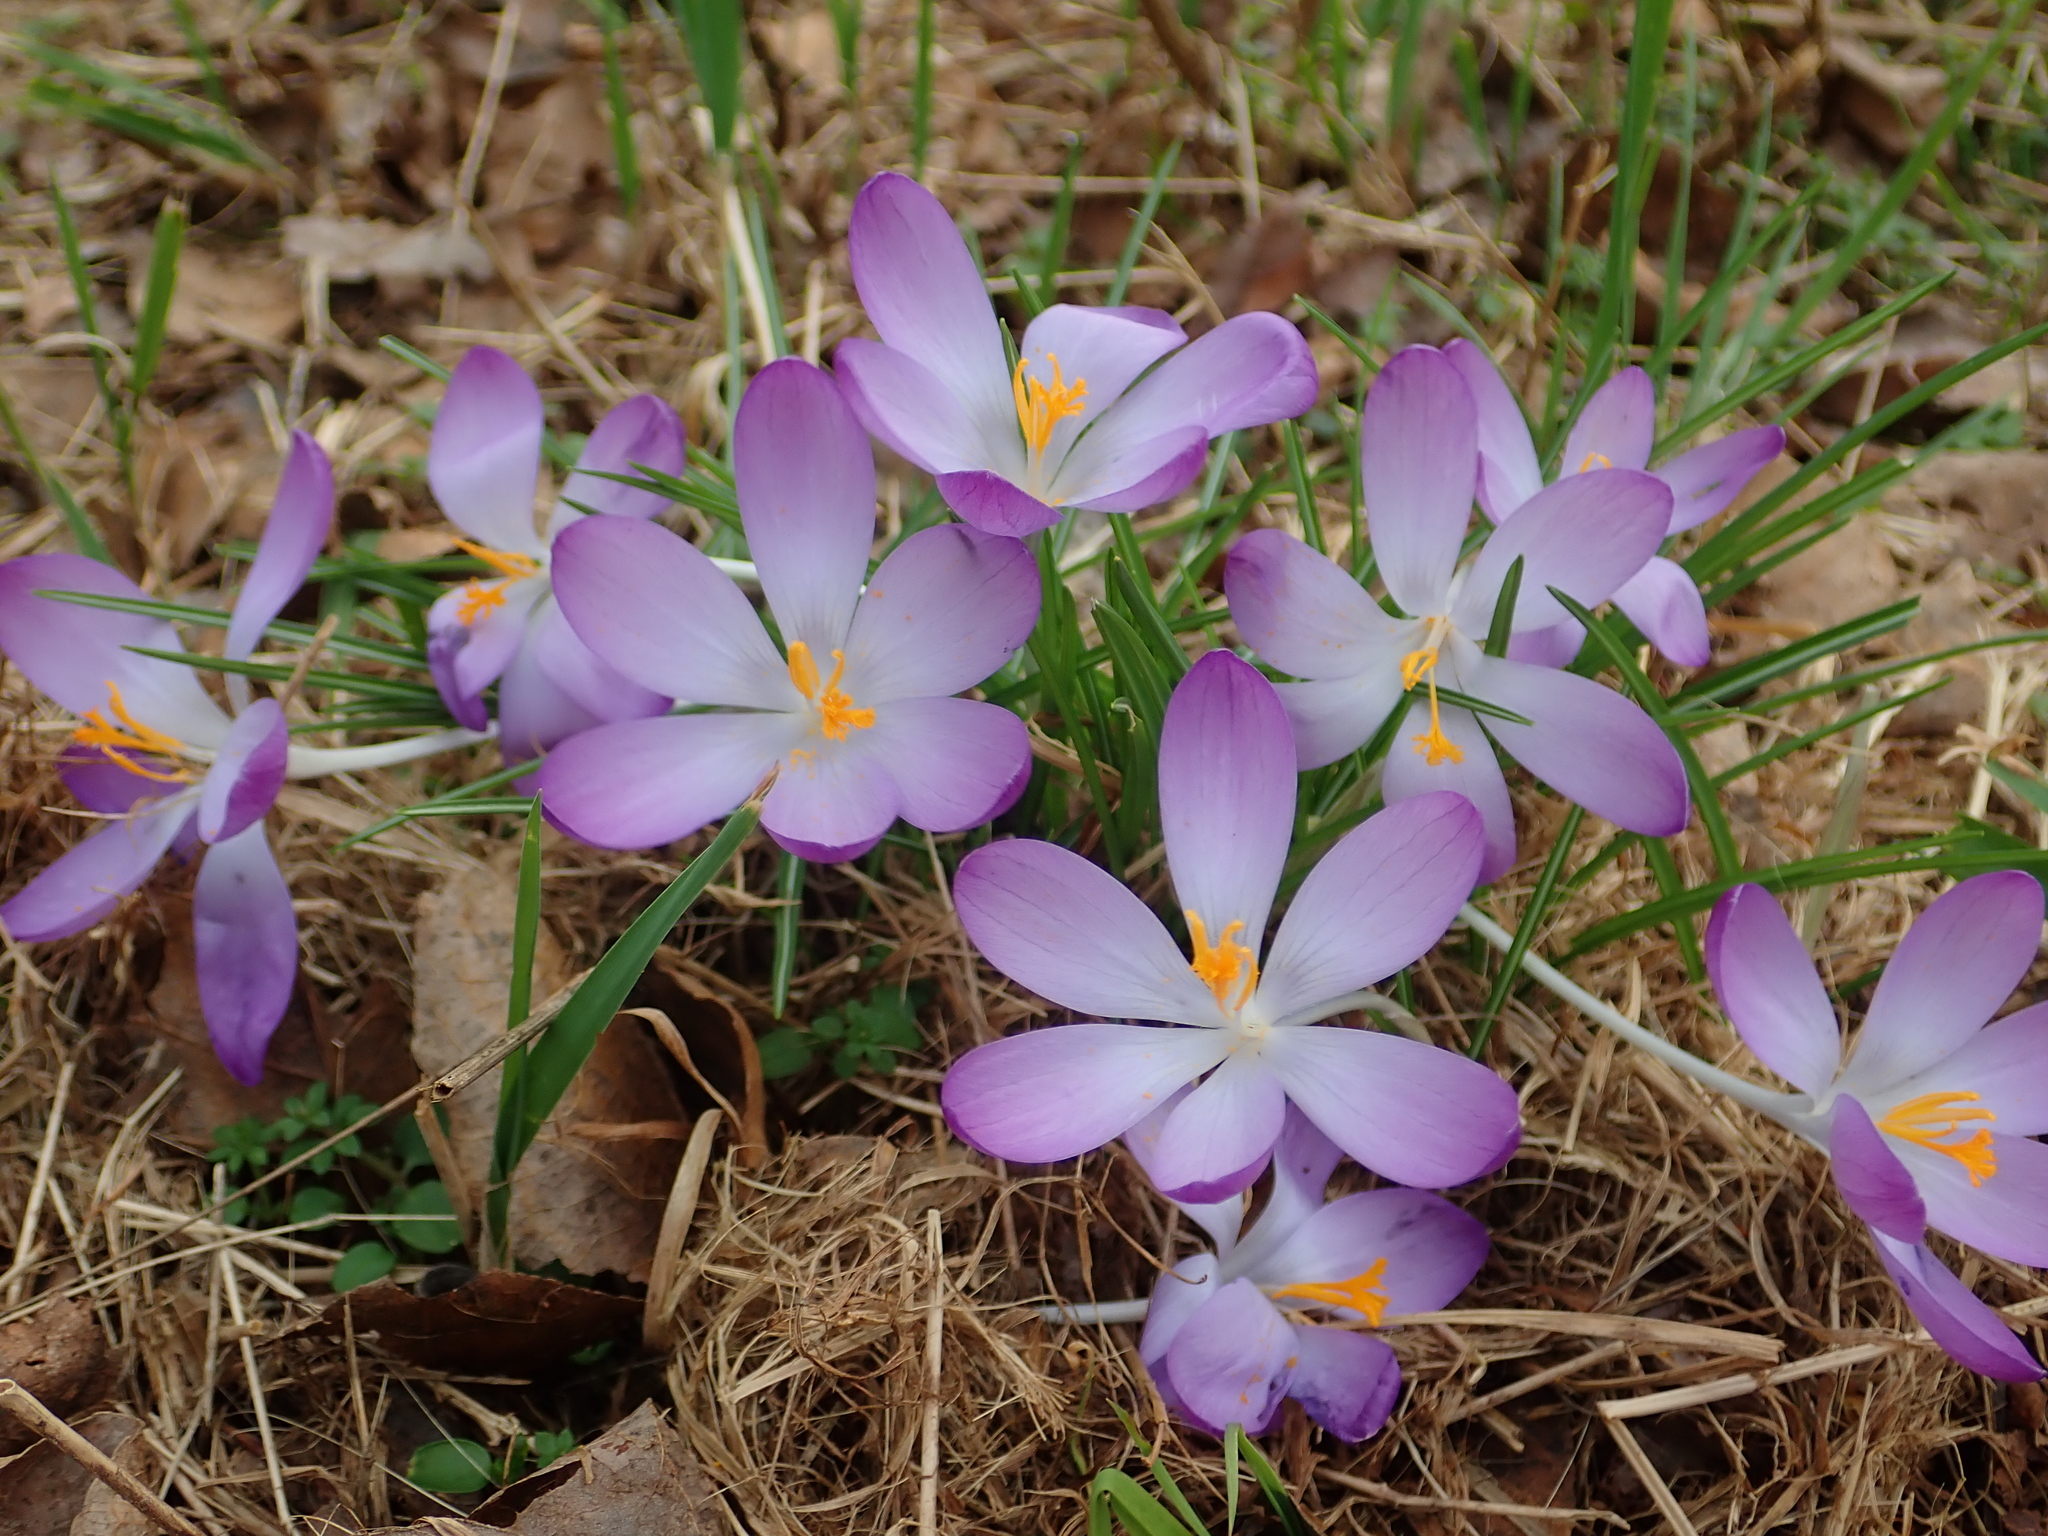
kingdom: Plantae
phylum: Tracheophyta
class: Liliopsida
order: Asparagales
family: Iridaceae
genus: Crocus
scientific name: Crocus tommasinianus
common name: Early crocus
